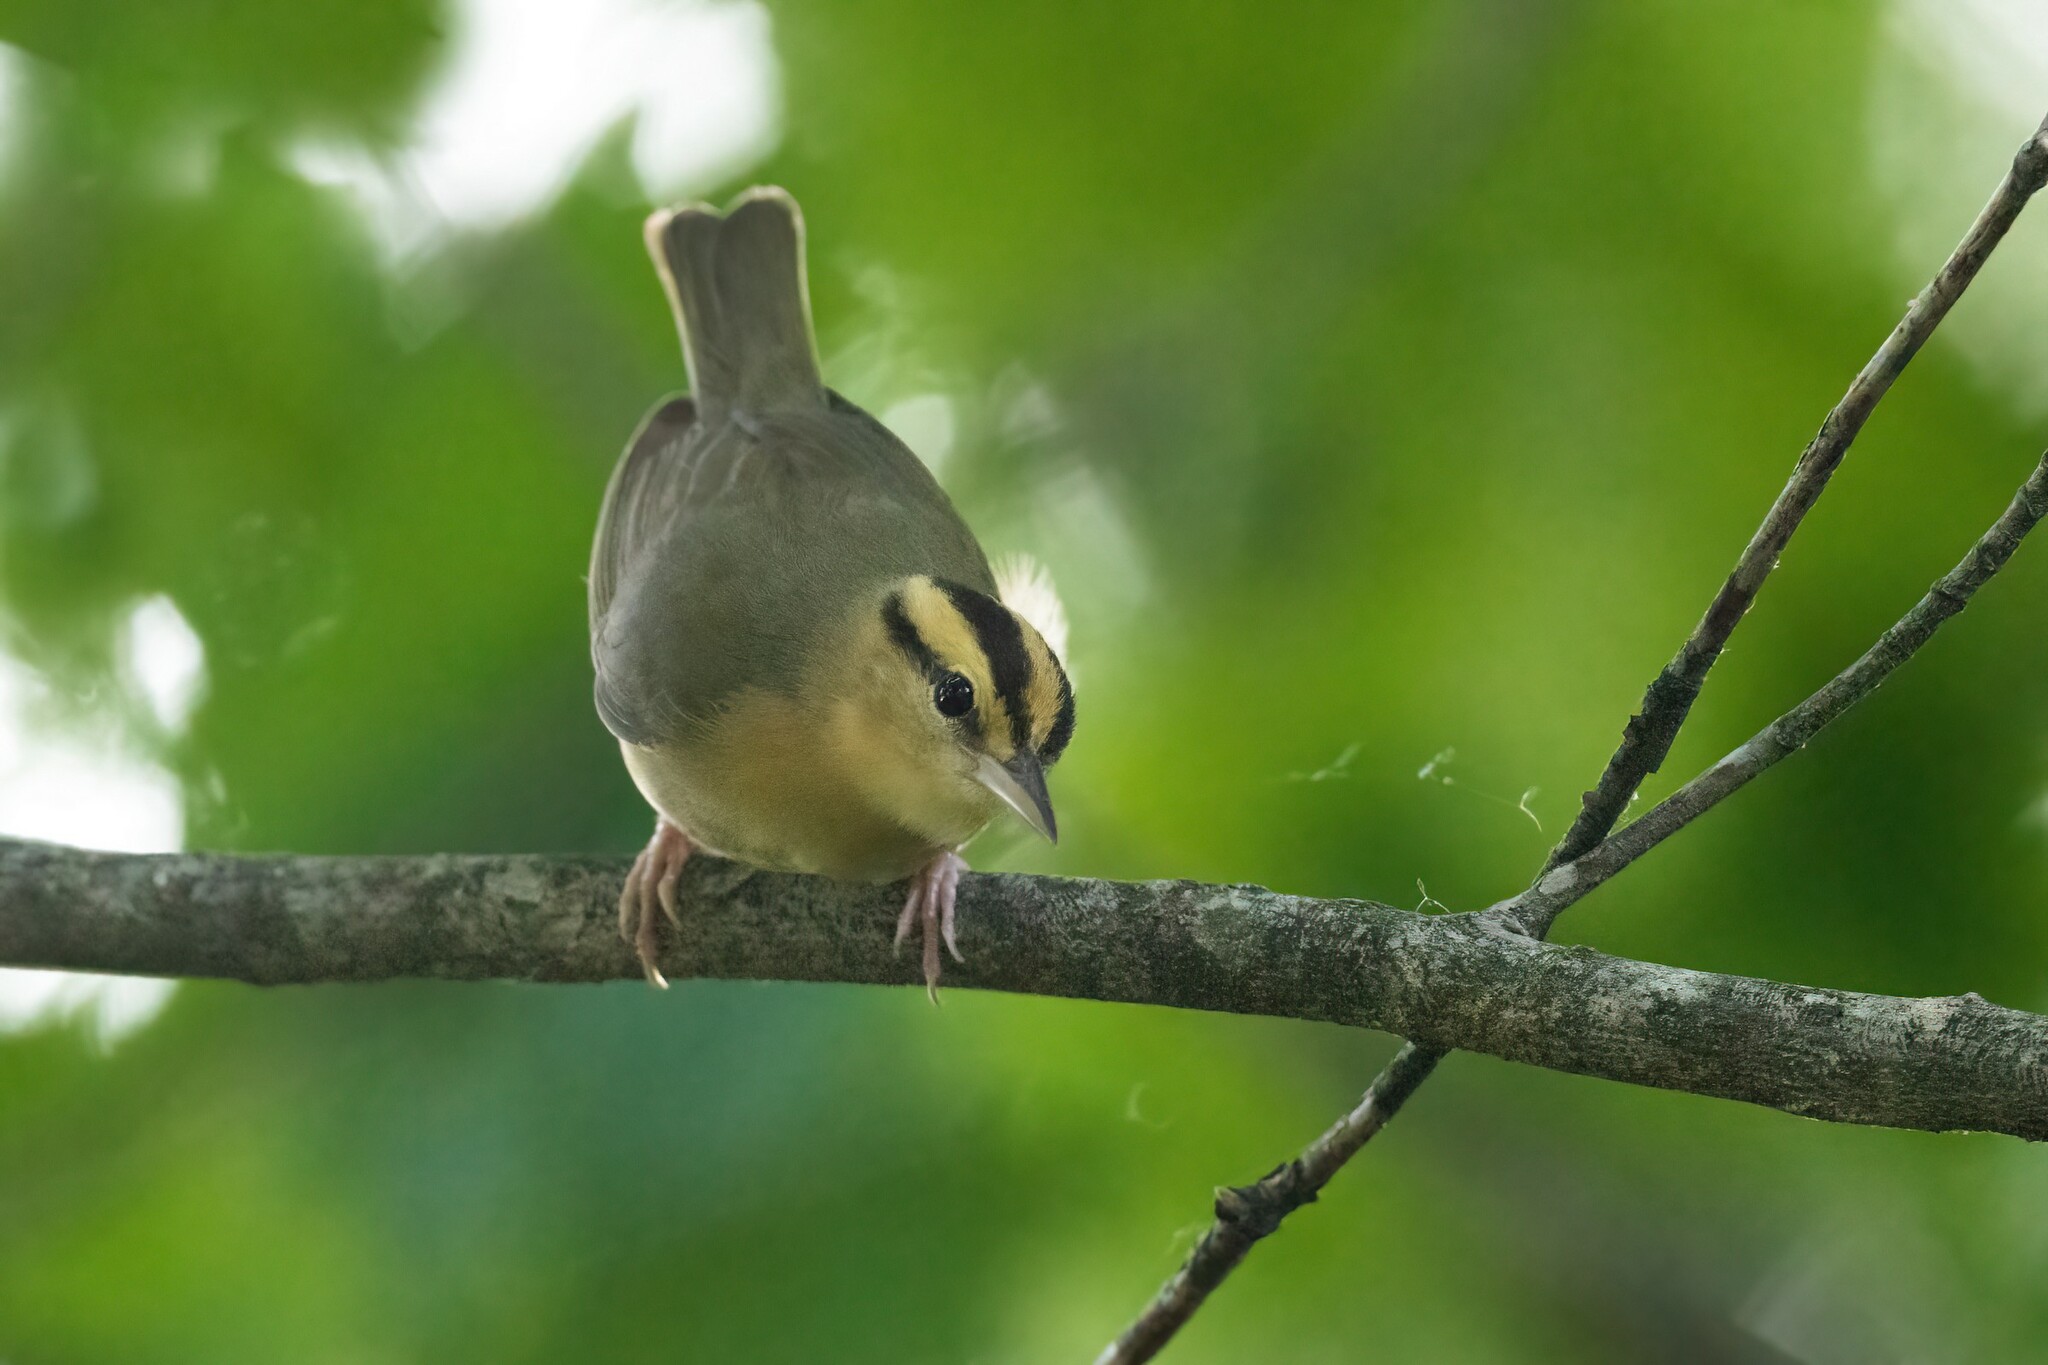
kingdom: Animalia
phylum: Chordata
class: Aves
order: Passeriformes
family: Parulidae
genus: Helmitheros
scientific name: Helmitheros vermivorum
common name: Worm-eating warbler
